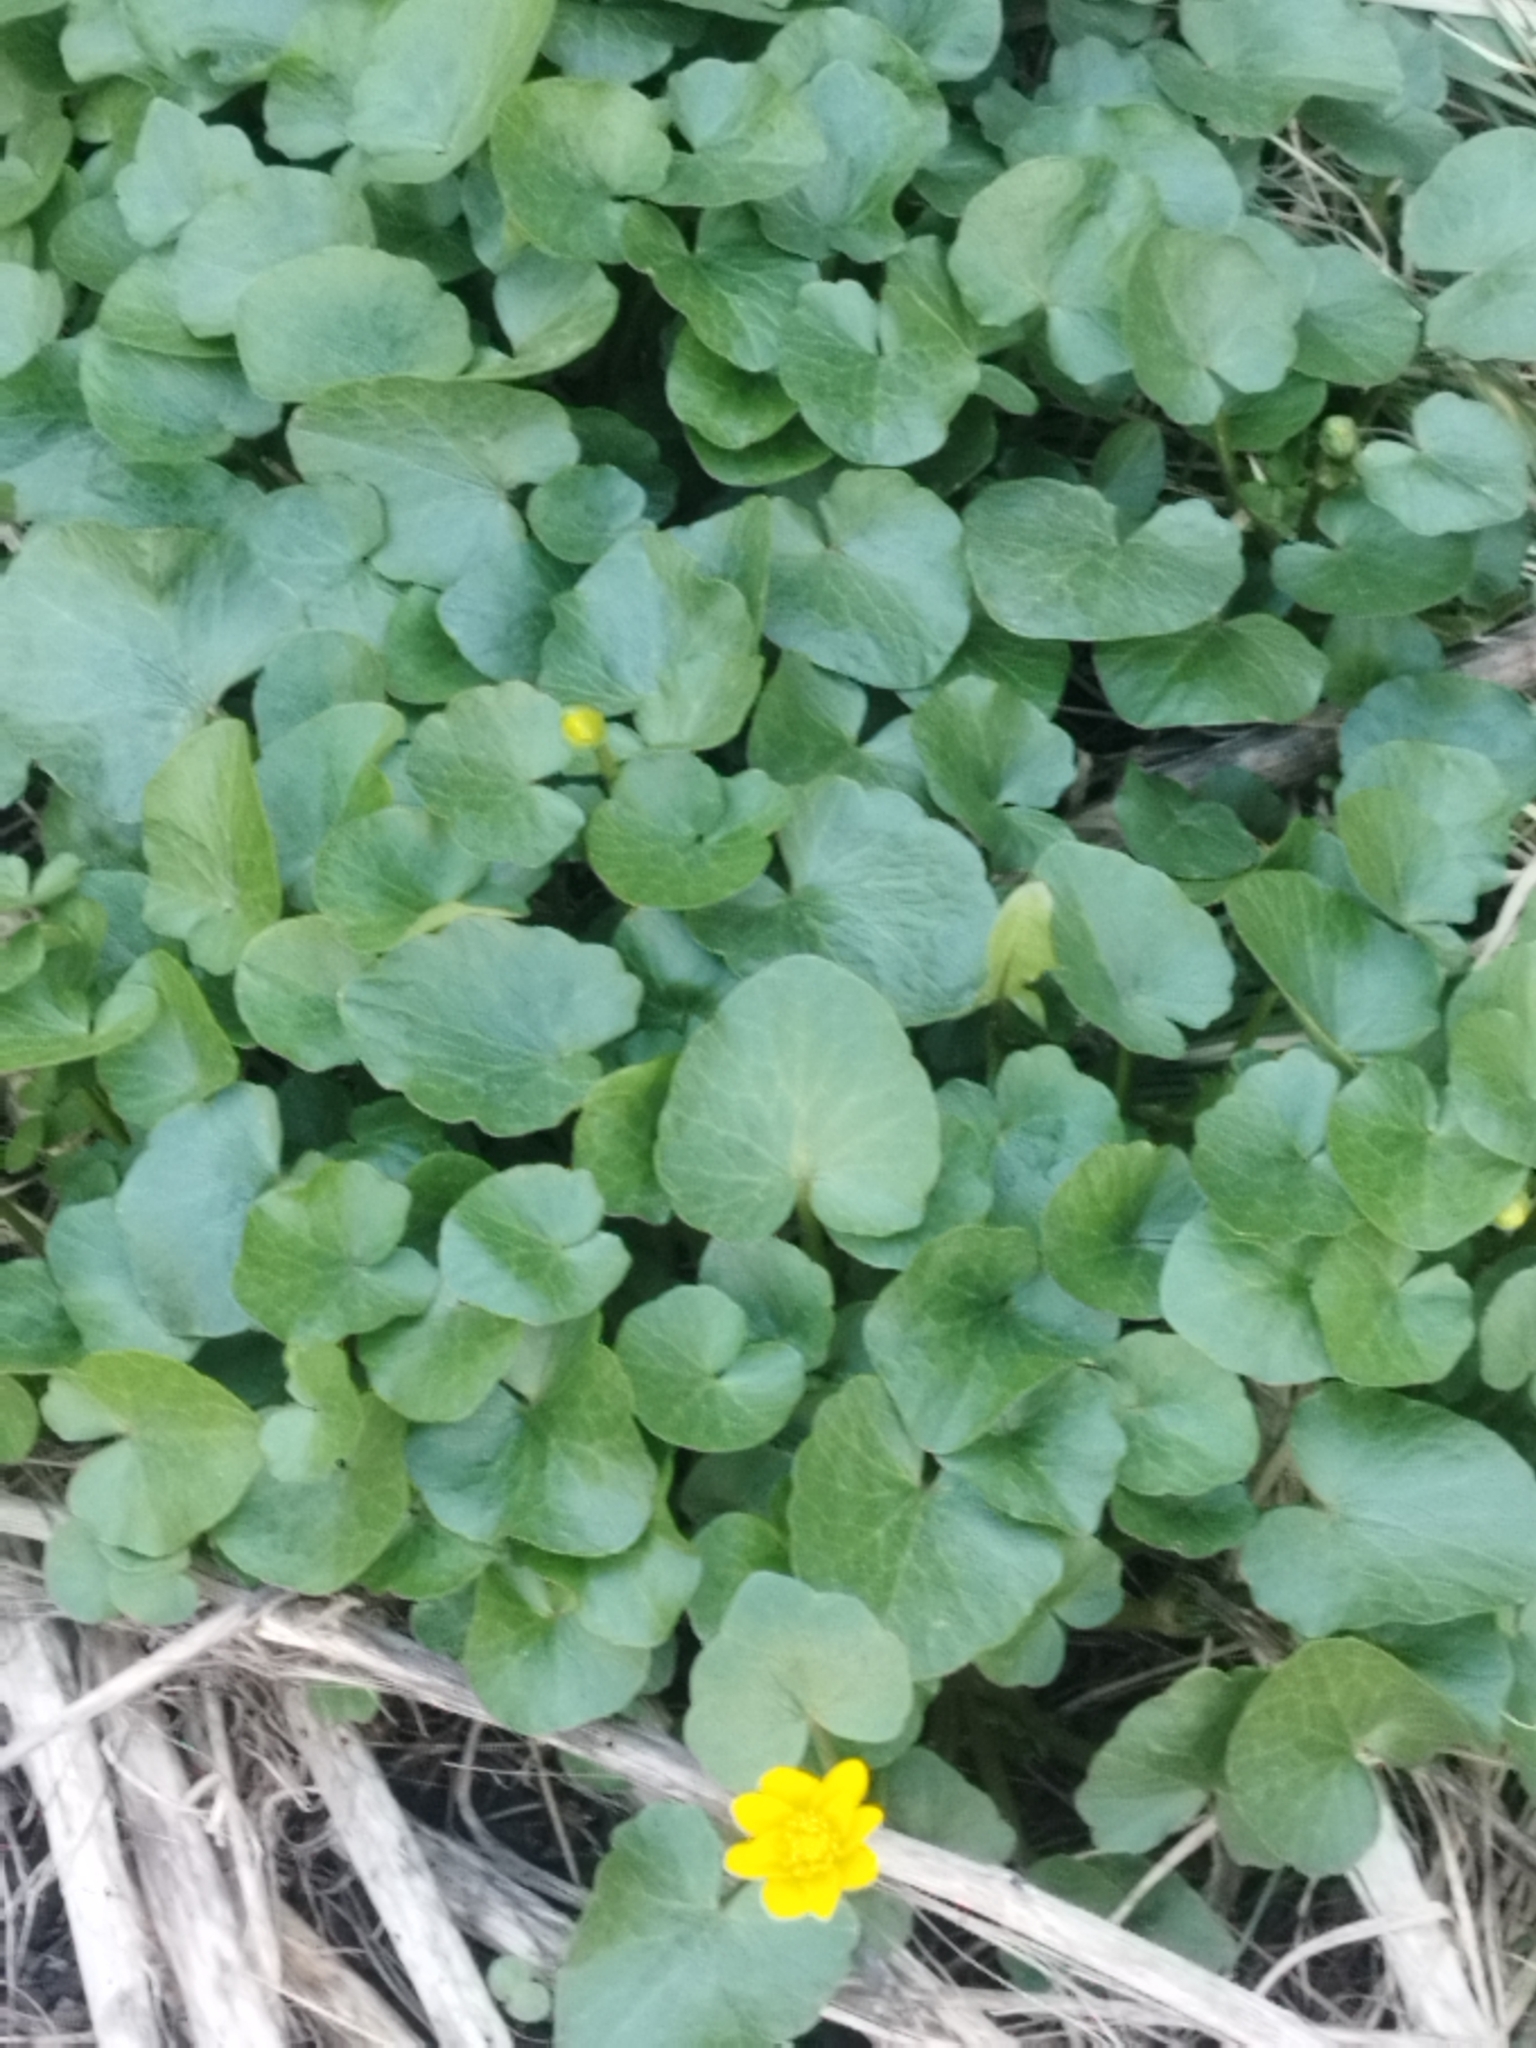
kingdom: Plantae
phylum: Tracheophyta
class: Magnoliopsida
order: Ranunculales
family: Ranunculaceae
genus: Ficaria
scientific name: Ficaria verna
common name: Lesser celandine
